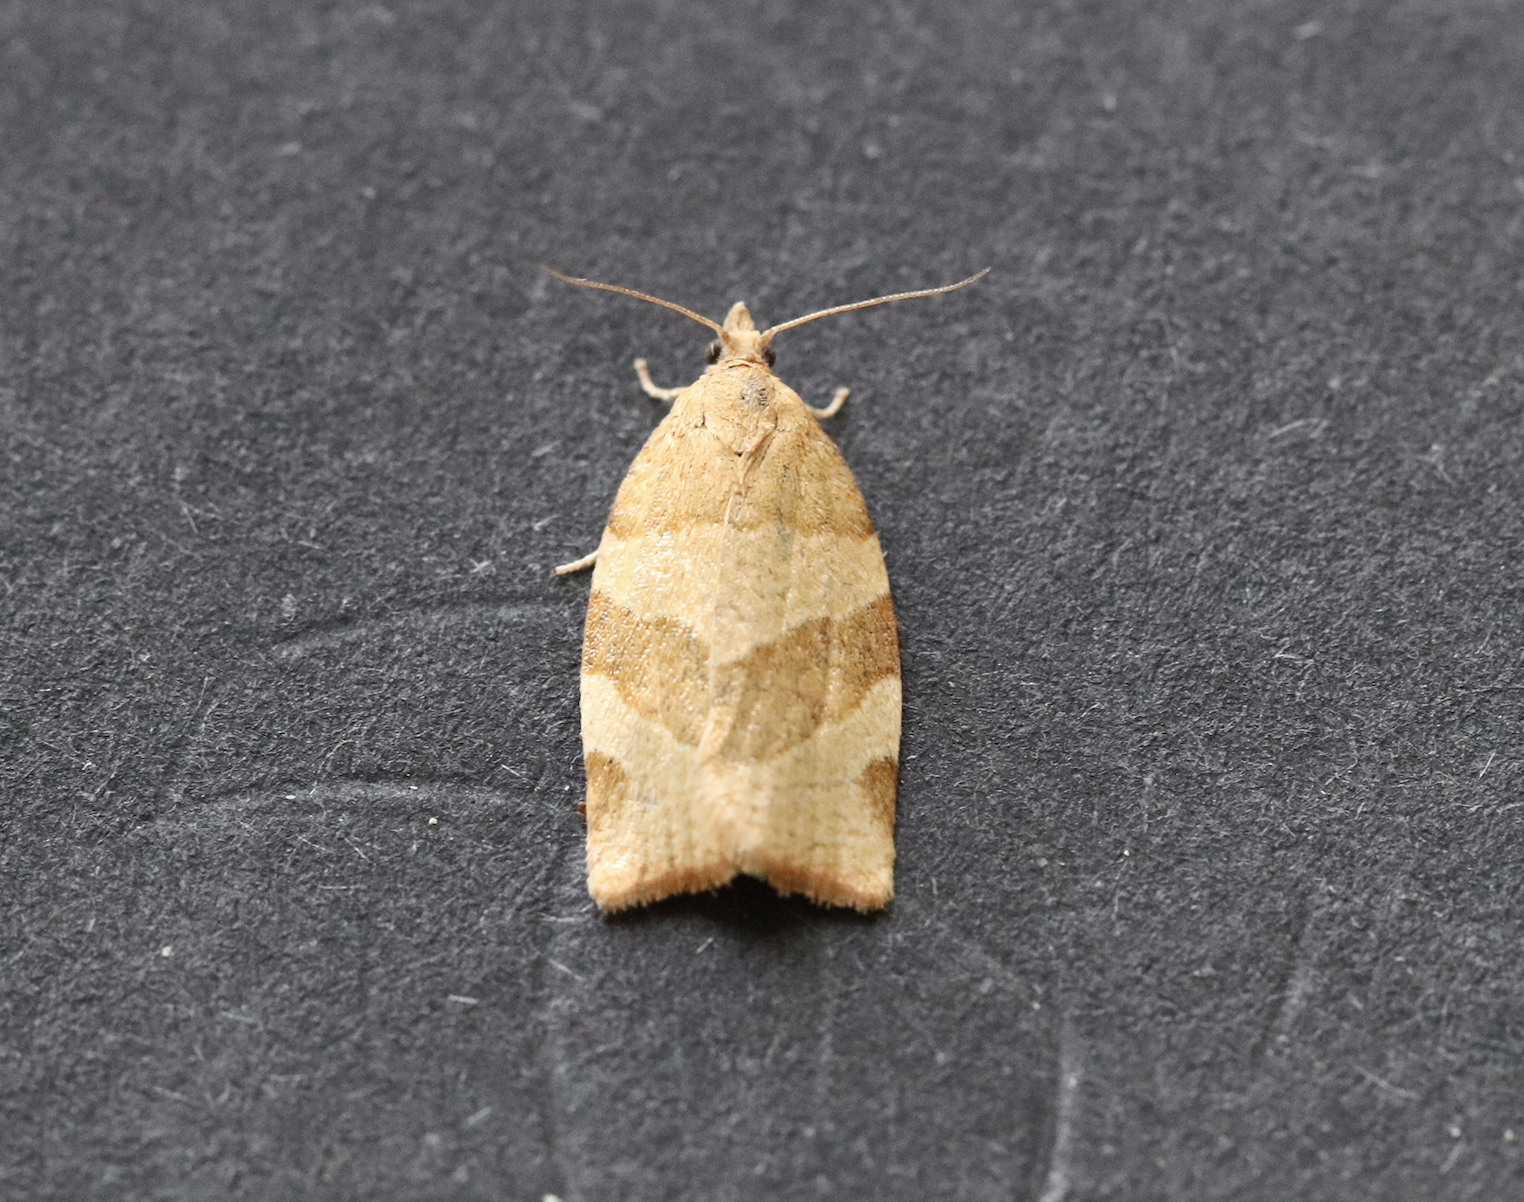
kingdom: Animalia
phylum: Arthropoda
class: Insecta
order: Lepidoptera
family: Tortricidae
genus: Pandemis
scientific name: Pandemis cerasana
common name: Barred fruit-tree tortrix
